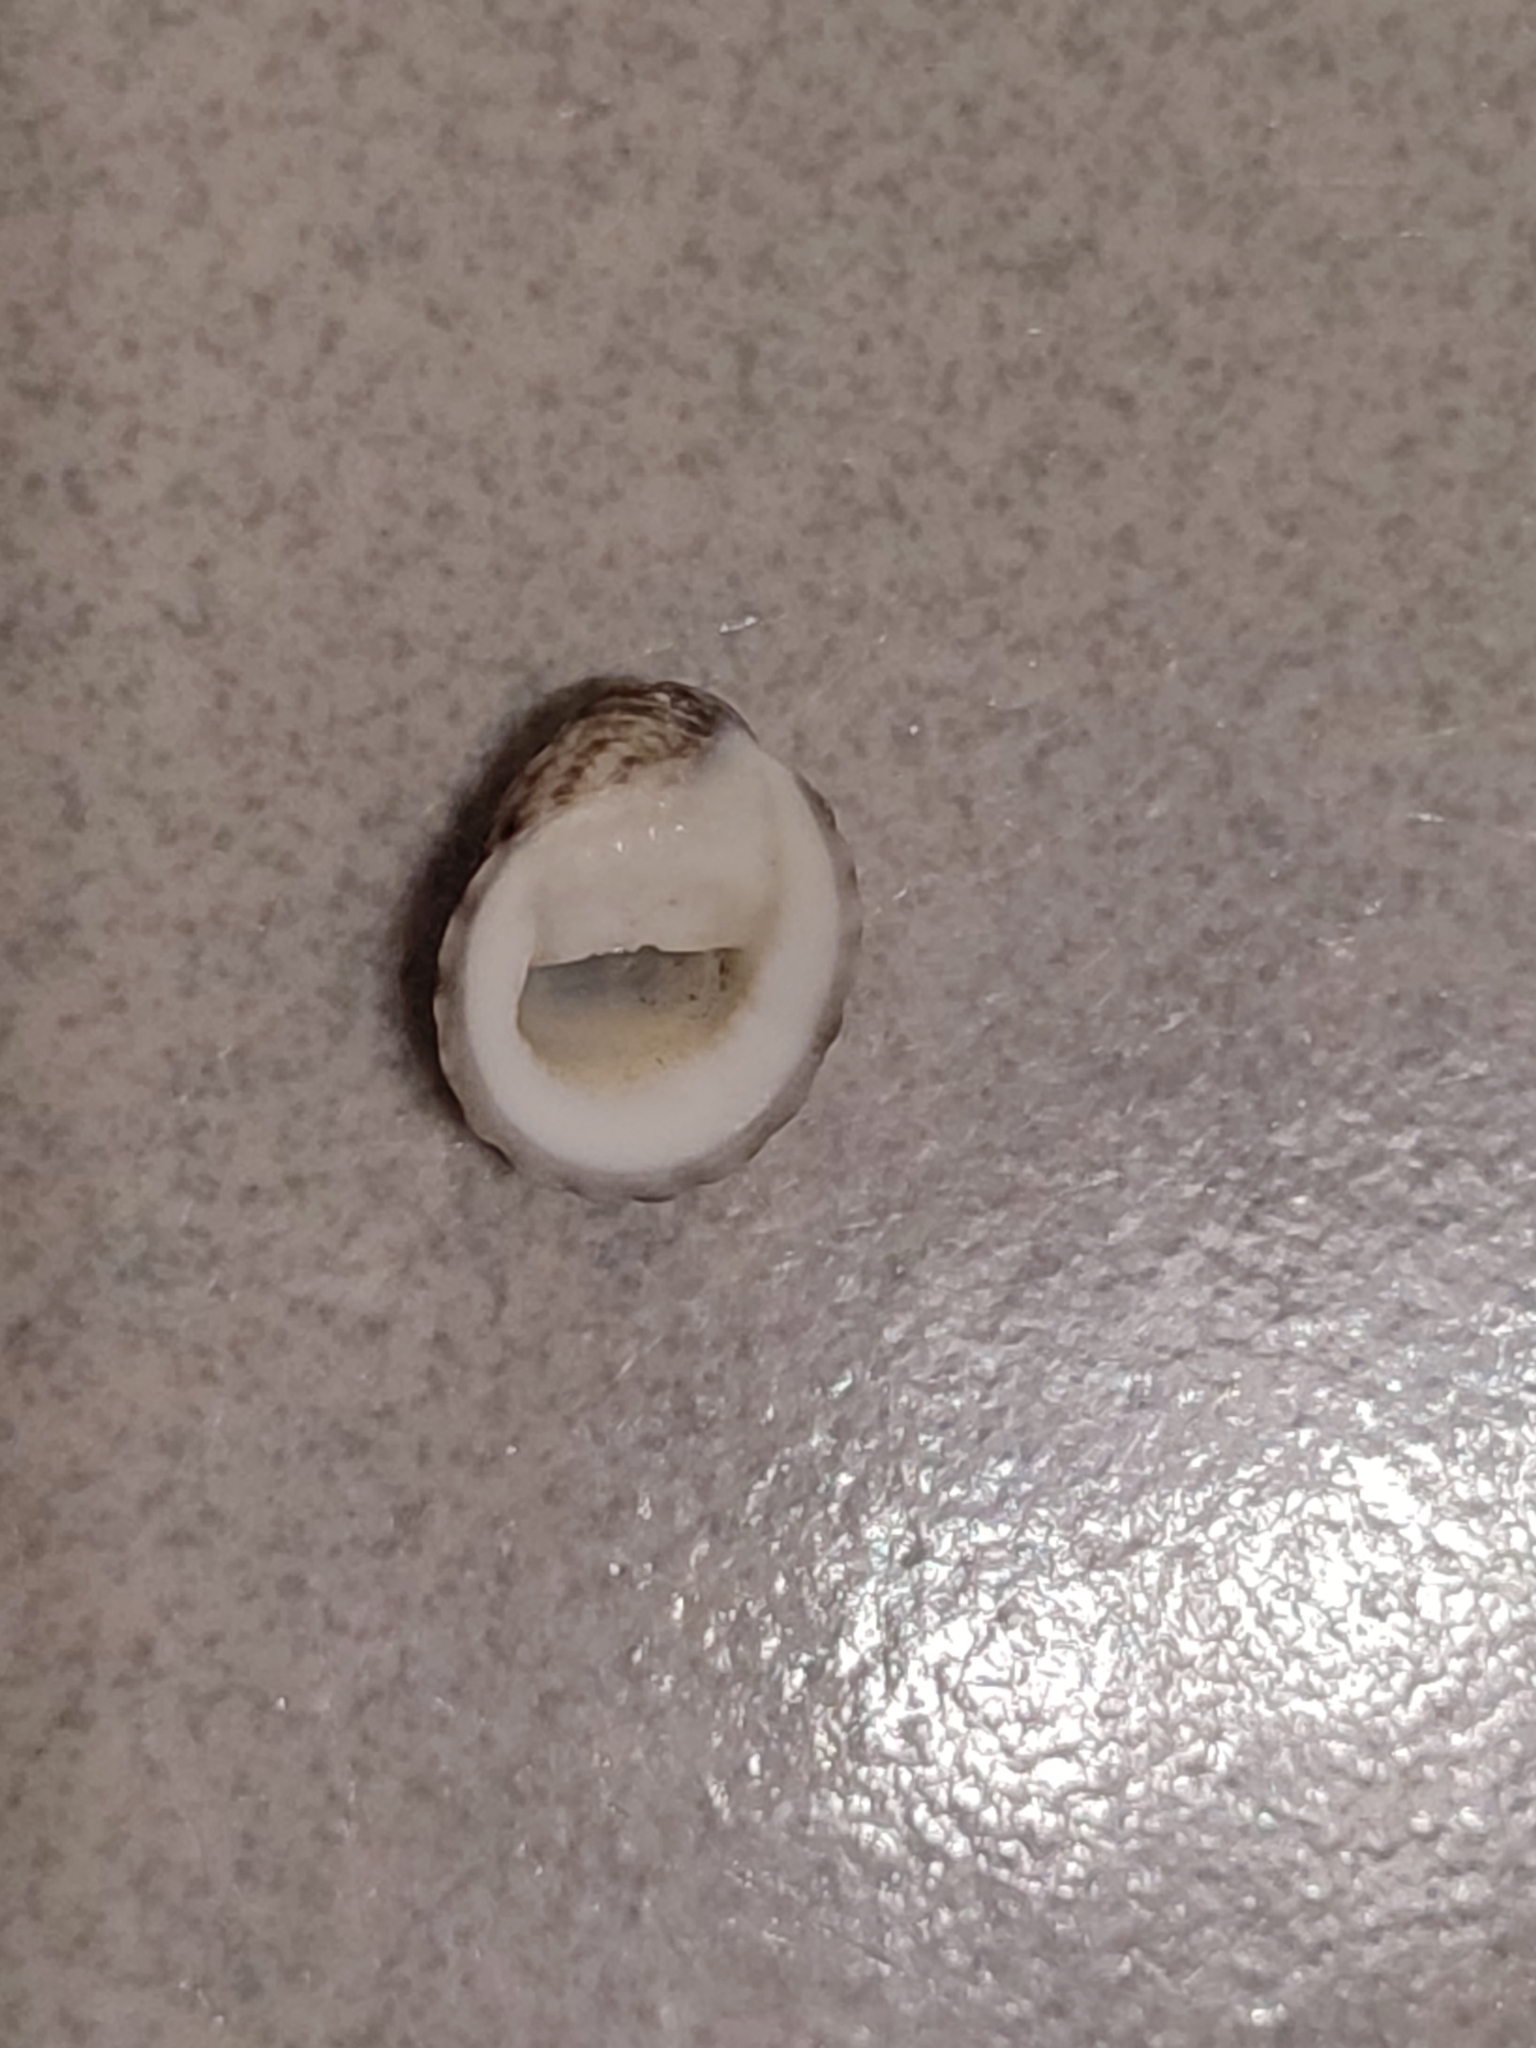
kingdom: Animalia
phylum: Mollusca
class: Gastropoda
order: Cycloneritida
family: Neritidae
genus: Nerita
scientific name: Nerita albicilla
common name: Blotched nerite
